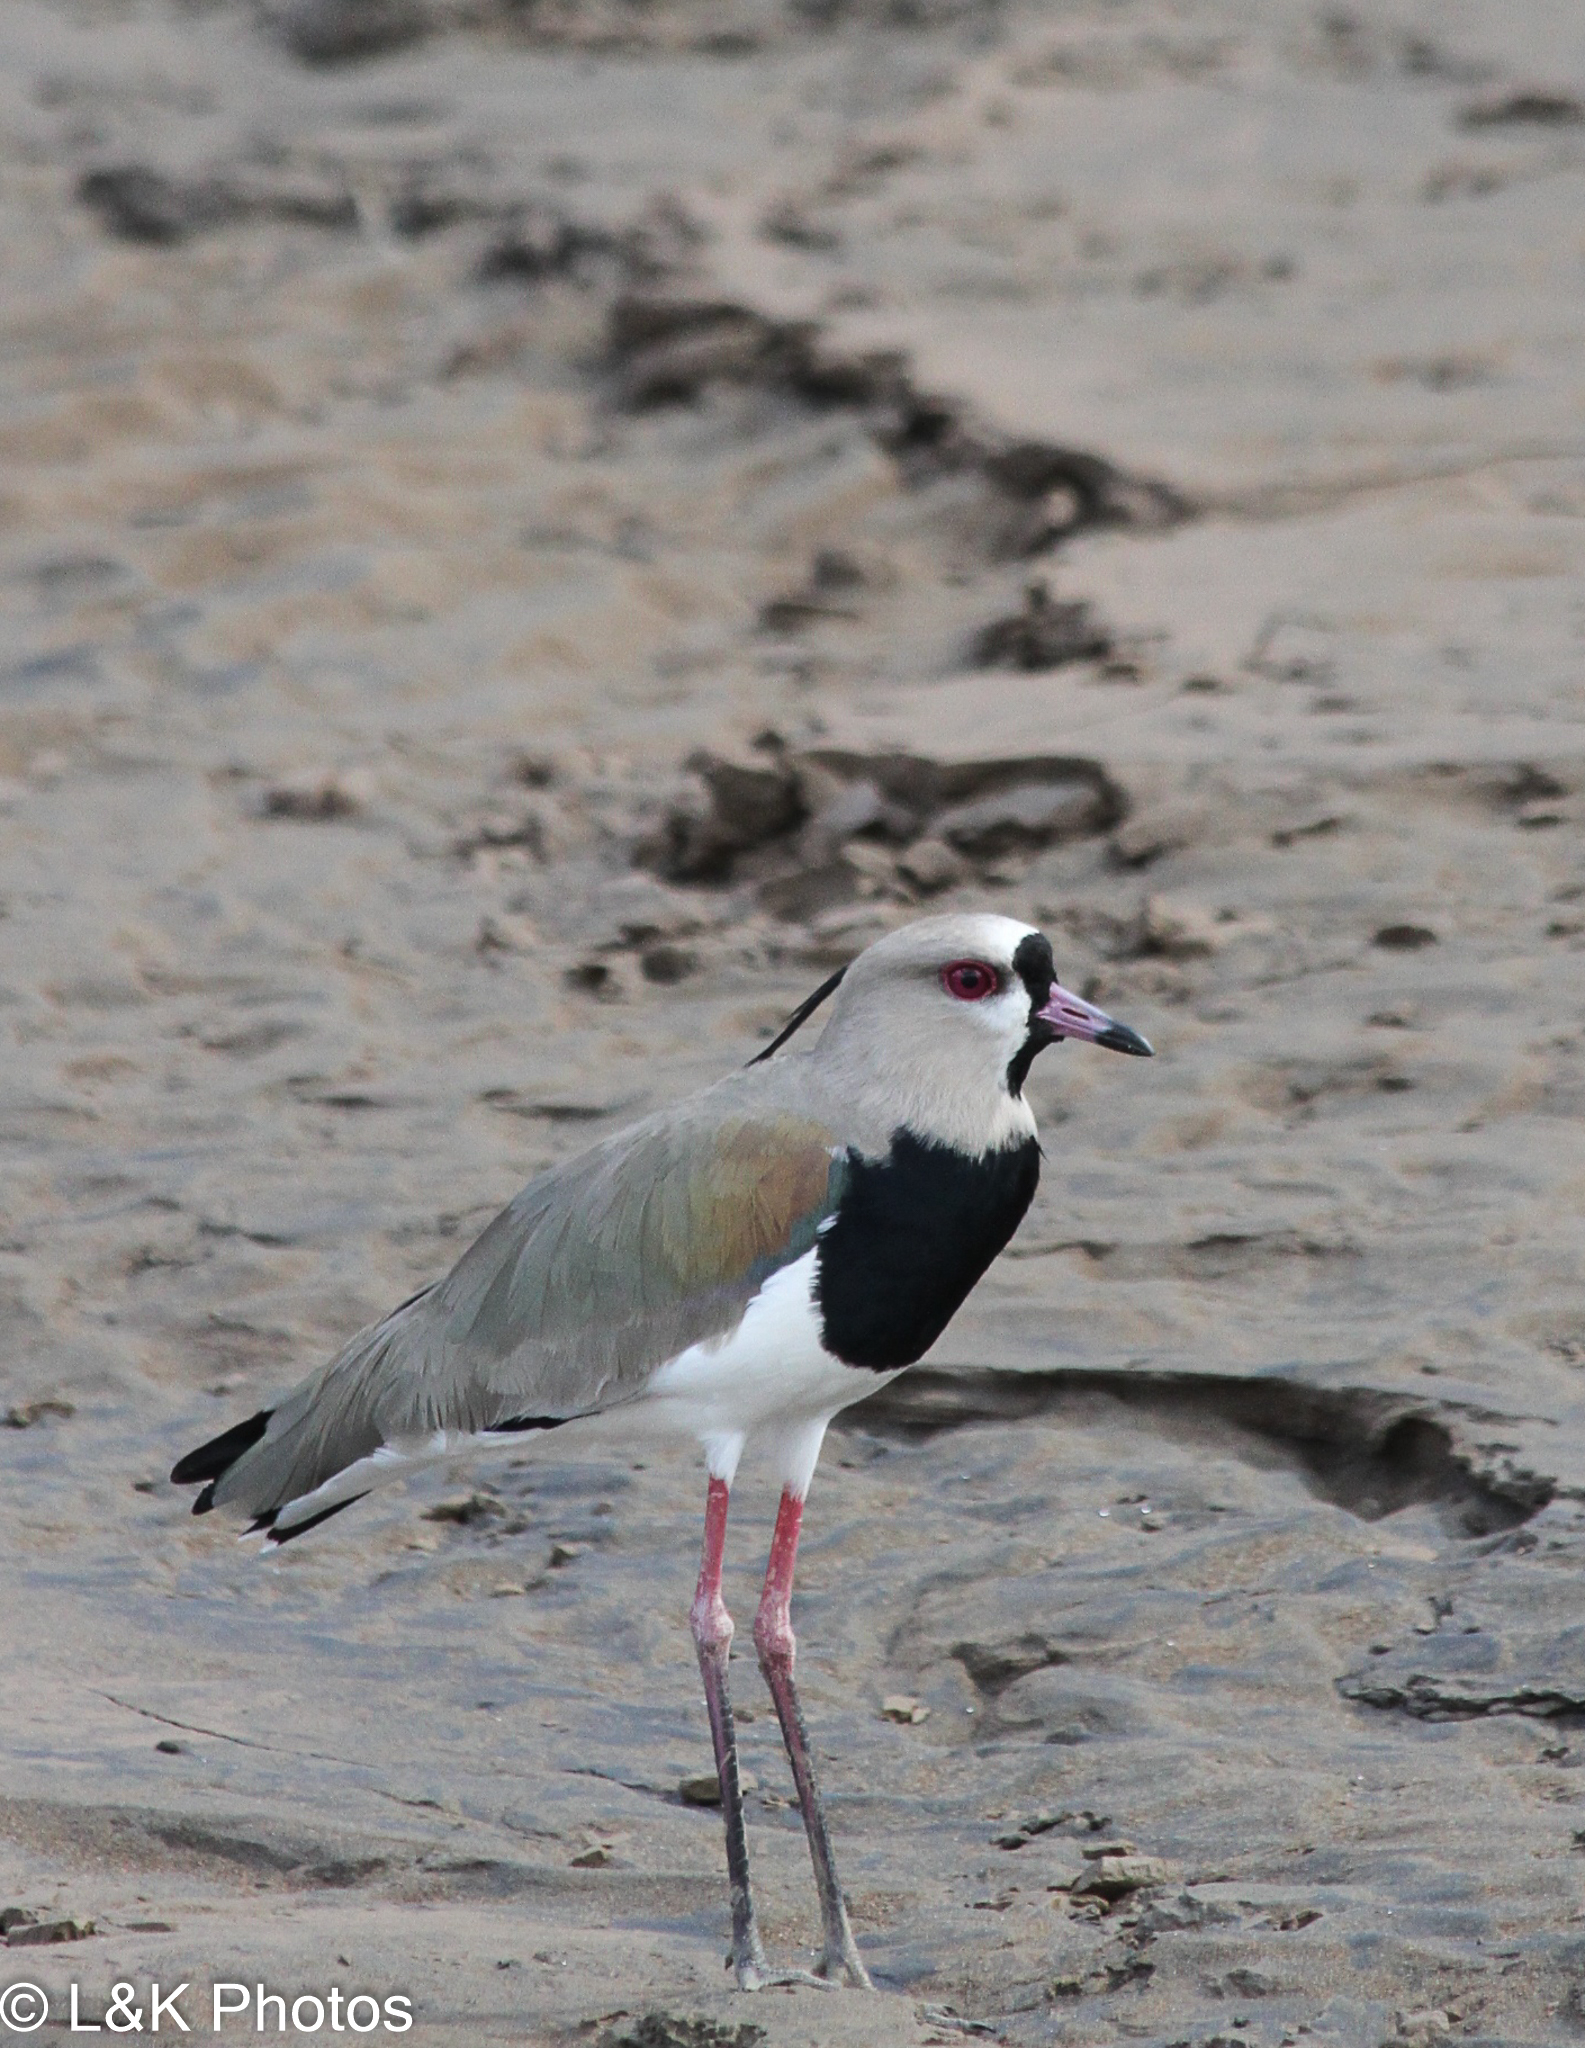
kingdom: Animalia
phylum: Chordata
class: Aves
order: Charadriiformes
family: Charadriidae
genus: Vanellus
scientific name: Vanellus chilensis
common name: Southern lapwing
